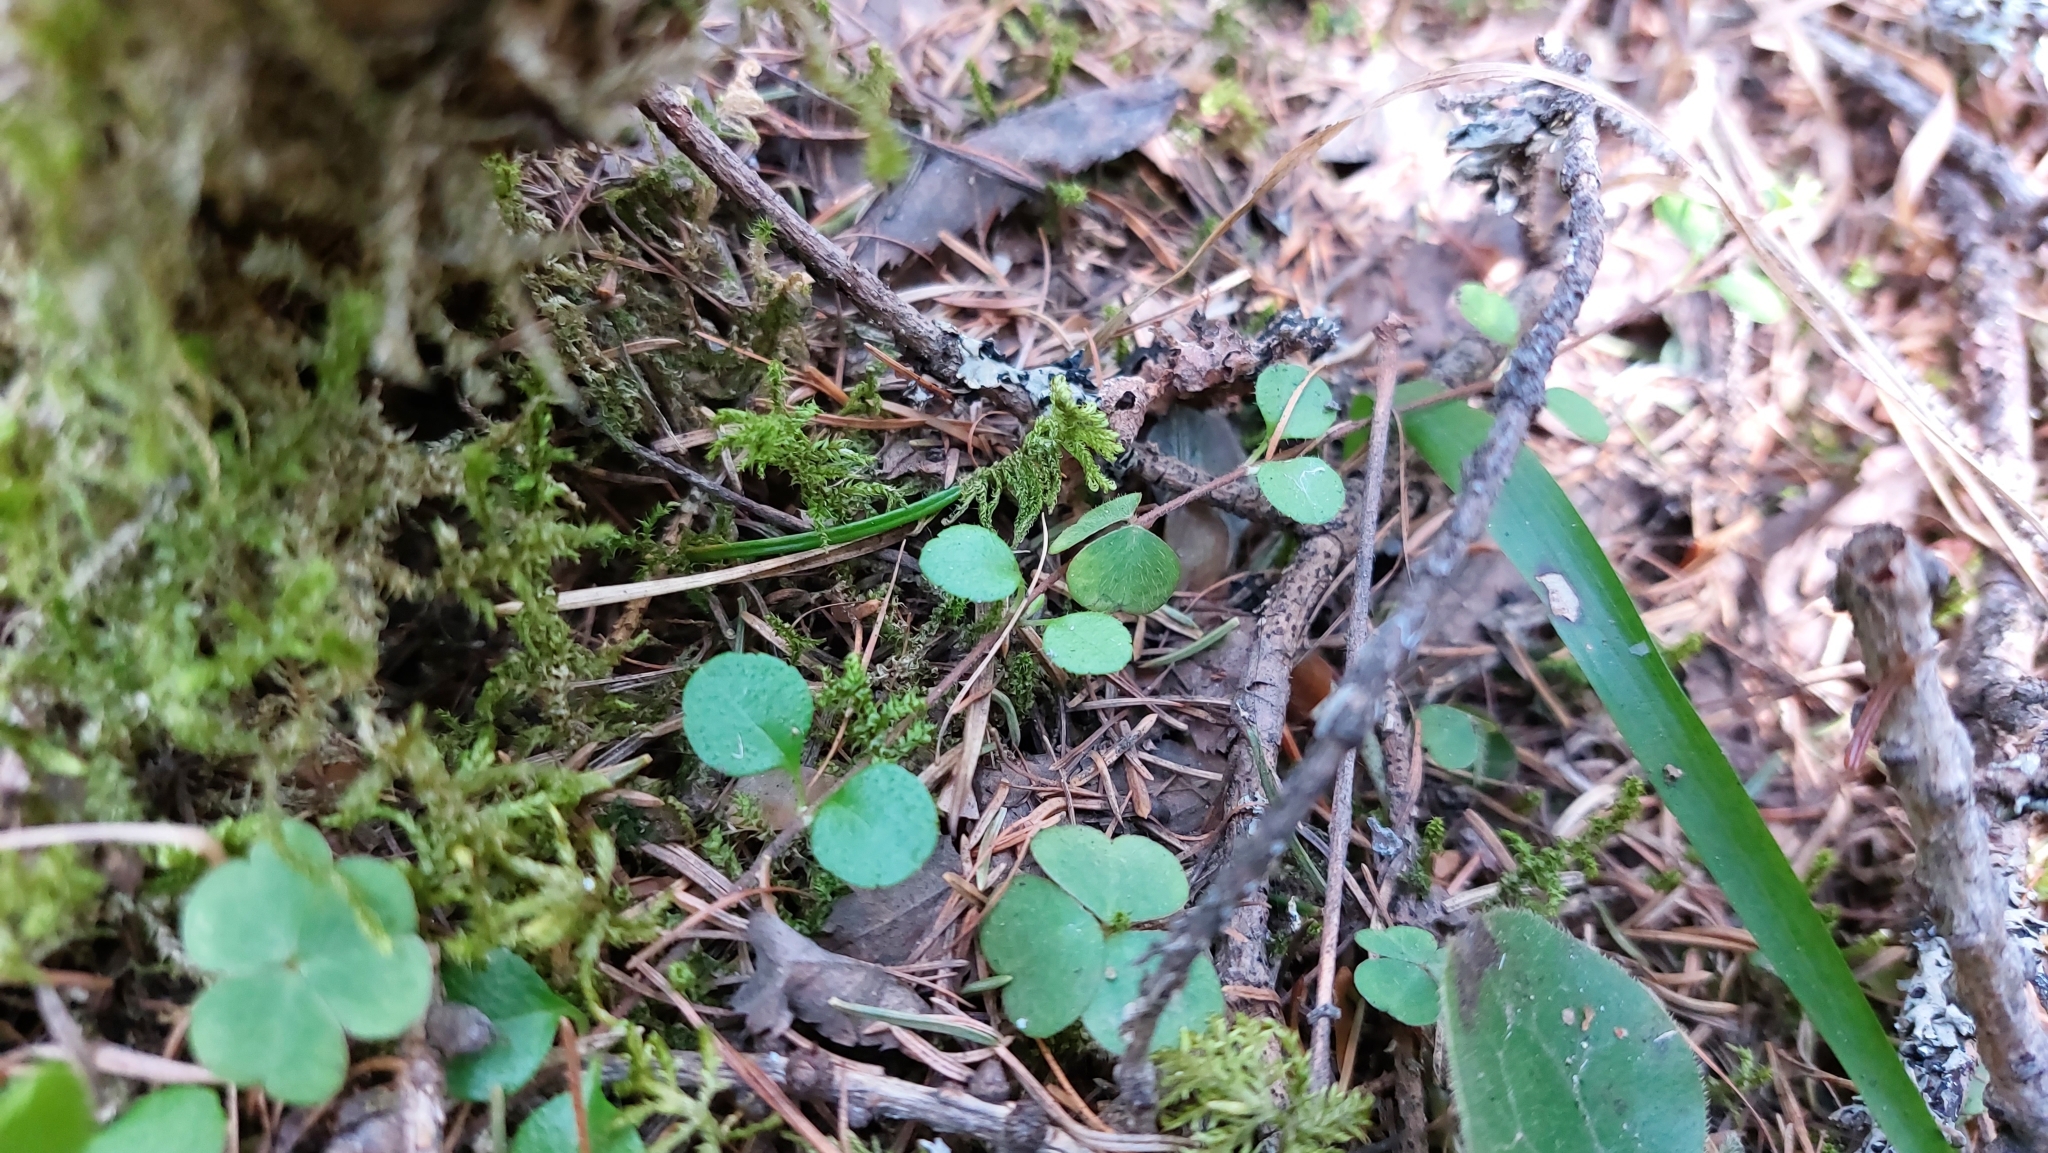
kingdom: Plantae
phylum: Tracheophyta
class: Magnoliopsida
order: Dipsacales
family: Caprifoliaceae
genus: Linnaea
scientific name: Linnaea borealis
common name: Twinflower
